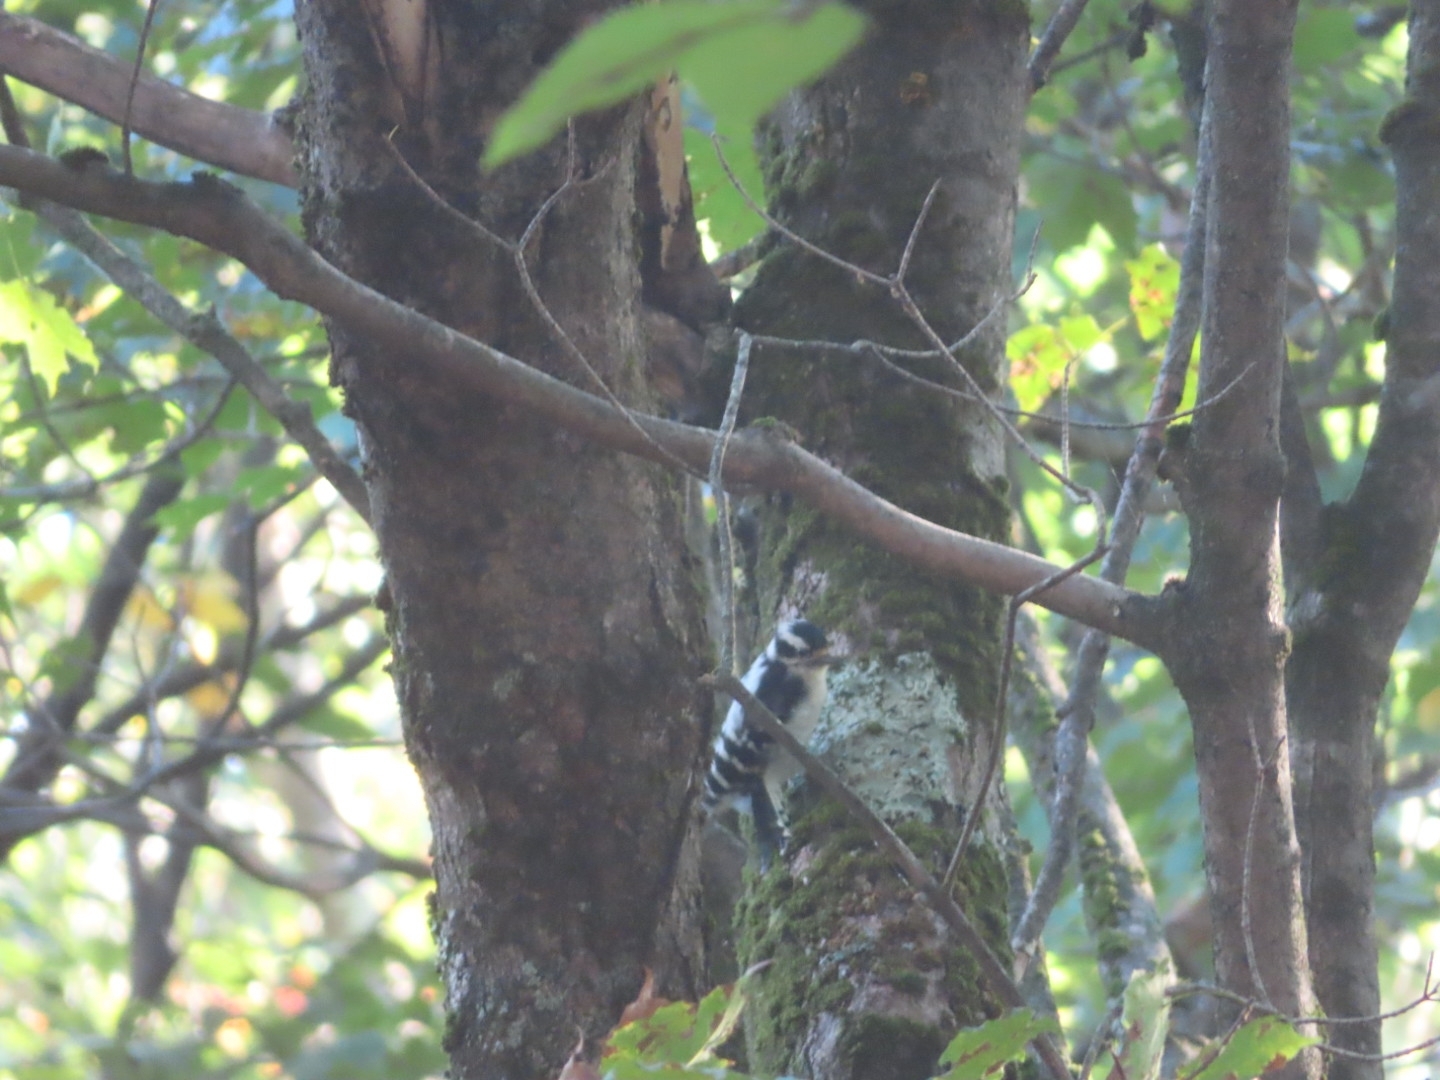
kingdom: Animalia
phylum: Chordata
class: Aves
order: Piciformes
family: Picidae
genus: Dryobates
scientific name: Dryobates pubescens
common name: Downy woodpecker
